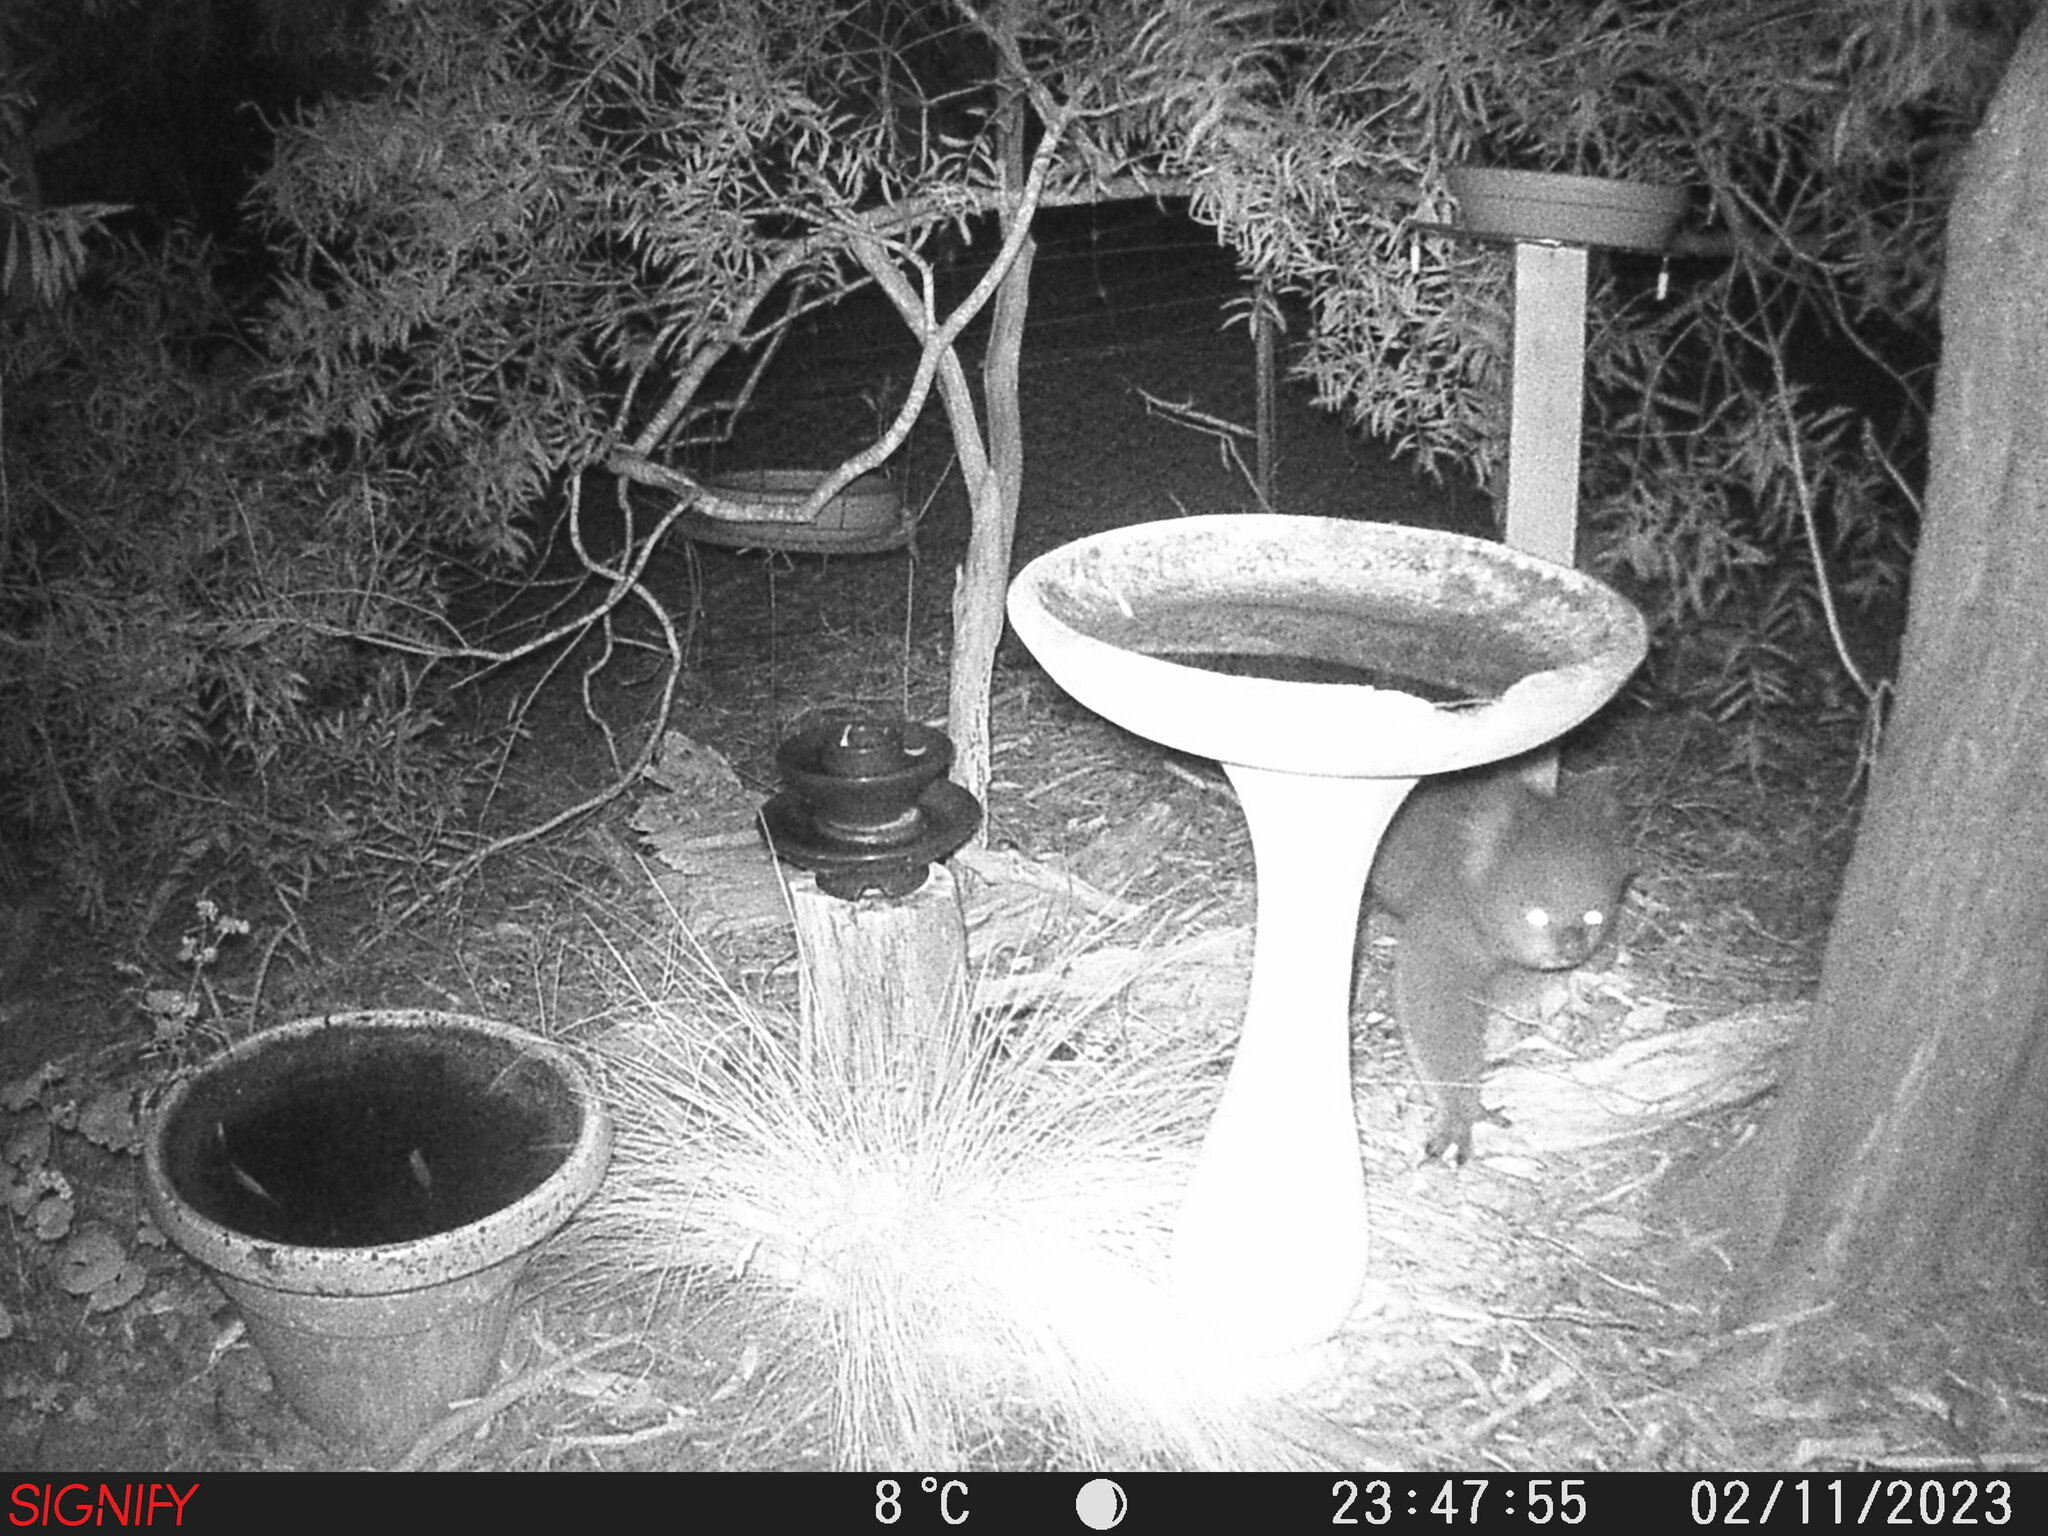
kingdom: Animalia
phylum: Chordata
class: Mammalia
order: Diprotodontia
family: Phascolarctidae
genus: Phascolarctos
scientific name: Phascolarctos cinereus
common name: Koala
